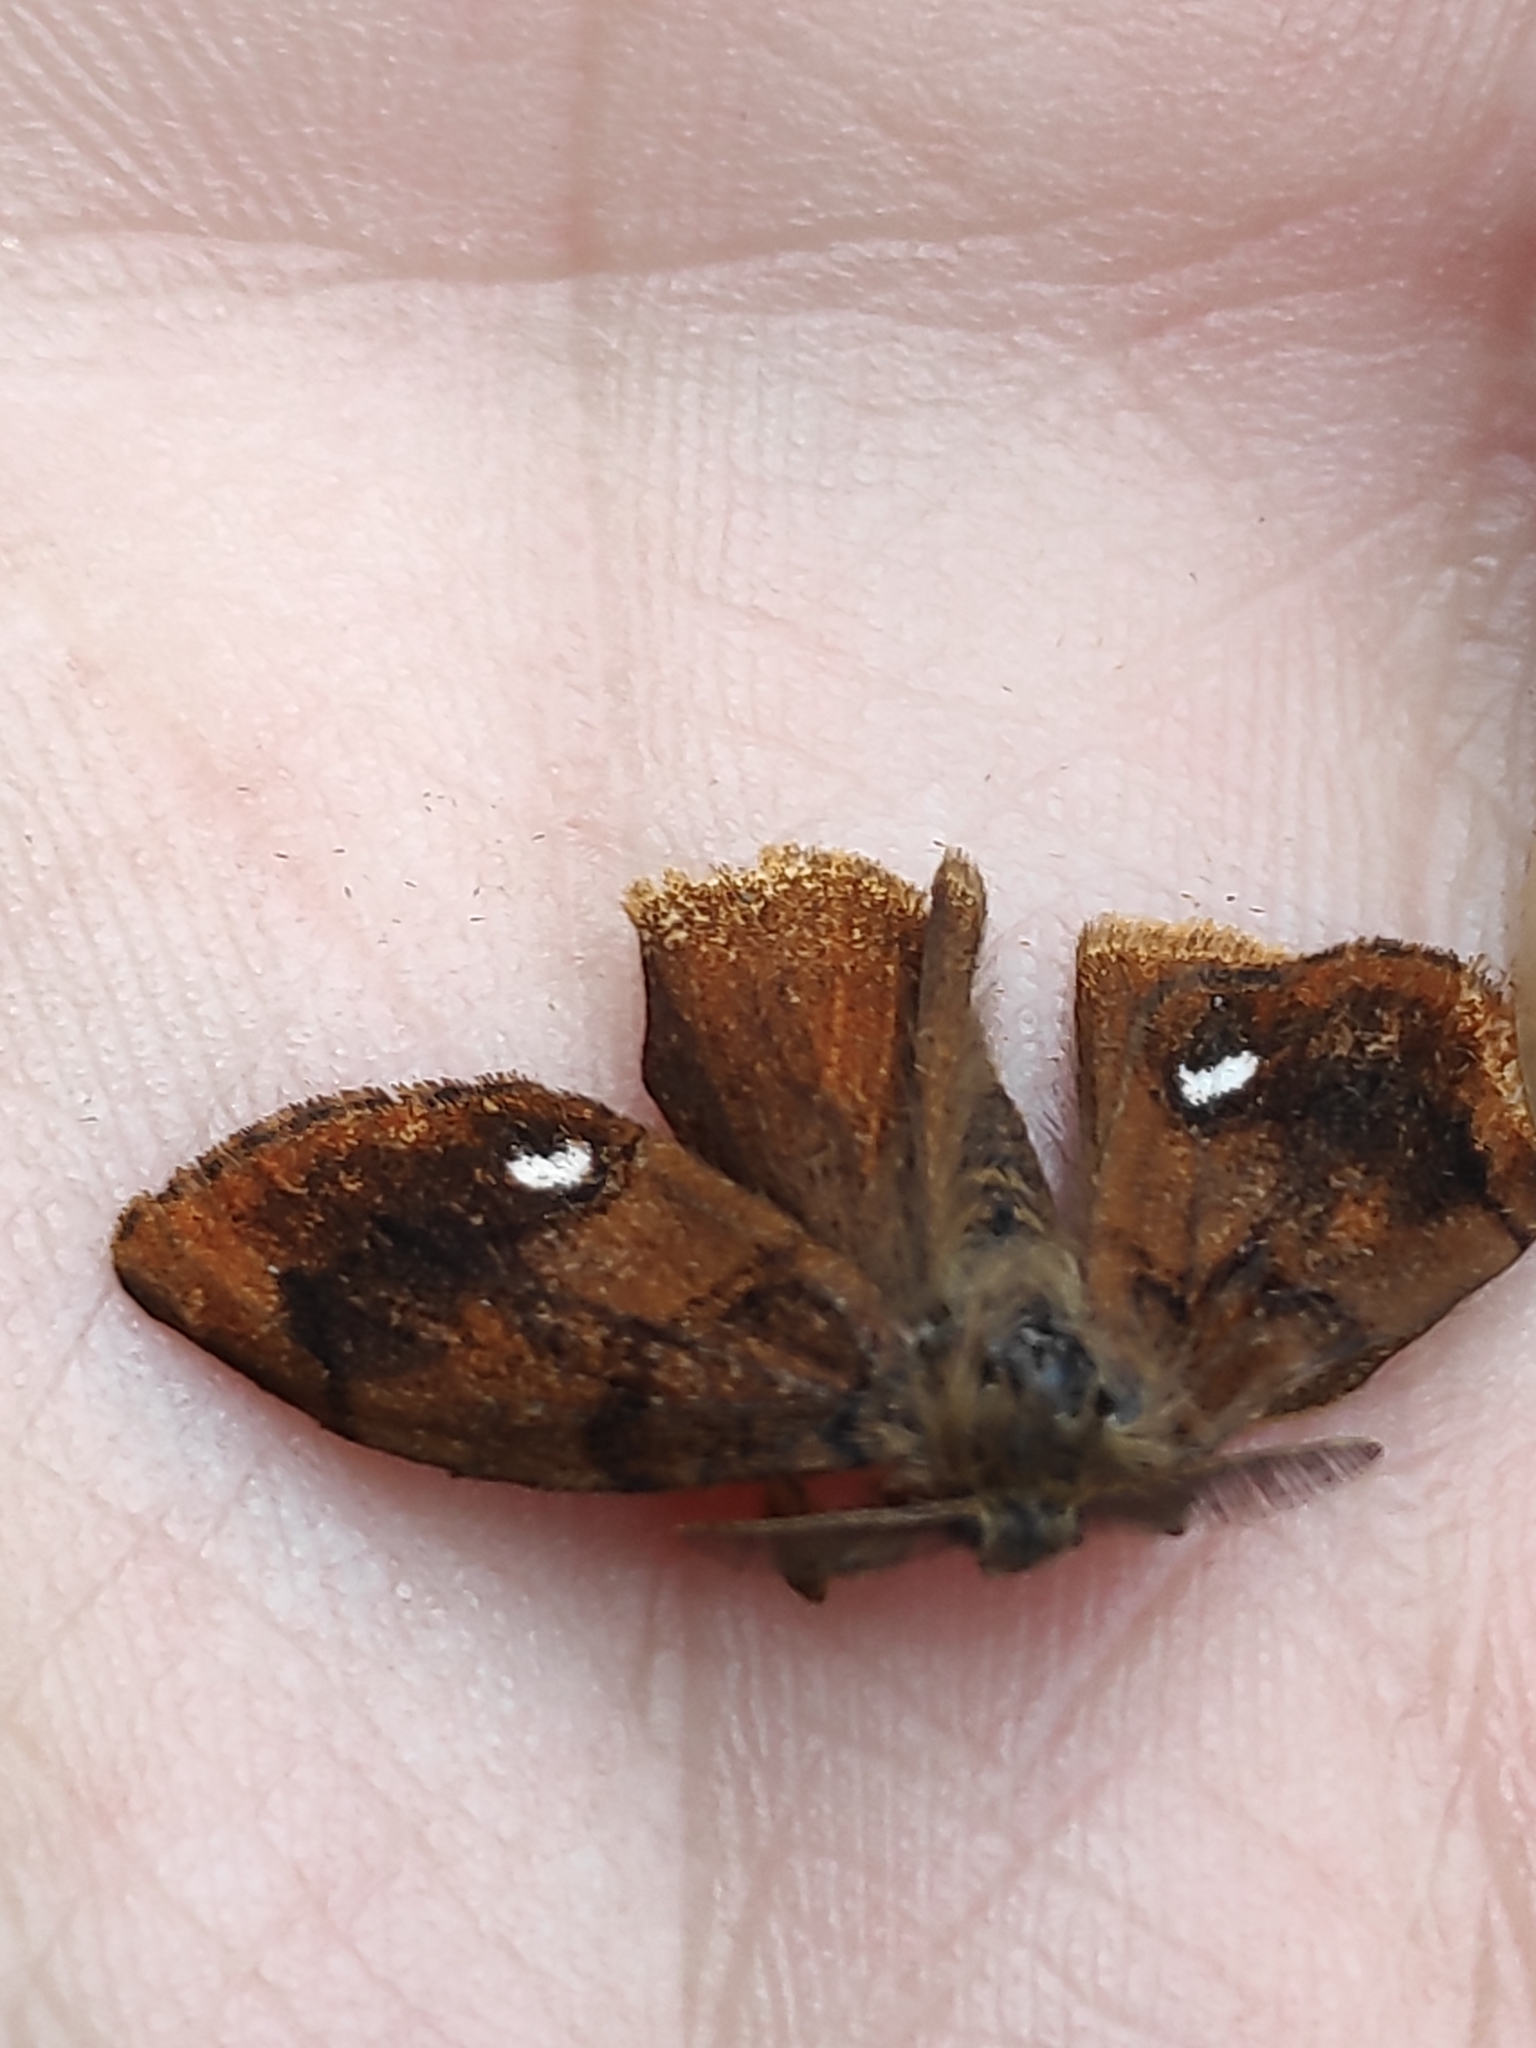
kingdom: Animalia
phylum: Arthropoda
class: Insecta
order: Lepidoptera
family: Erebidae
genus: Orgyia
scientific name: Orgyia antiqua
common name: Vapourer
